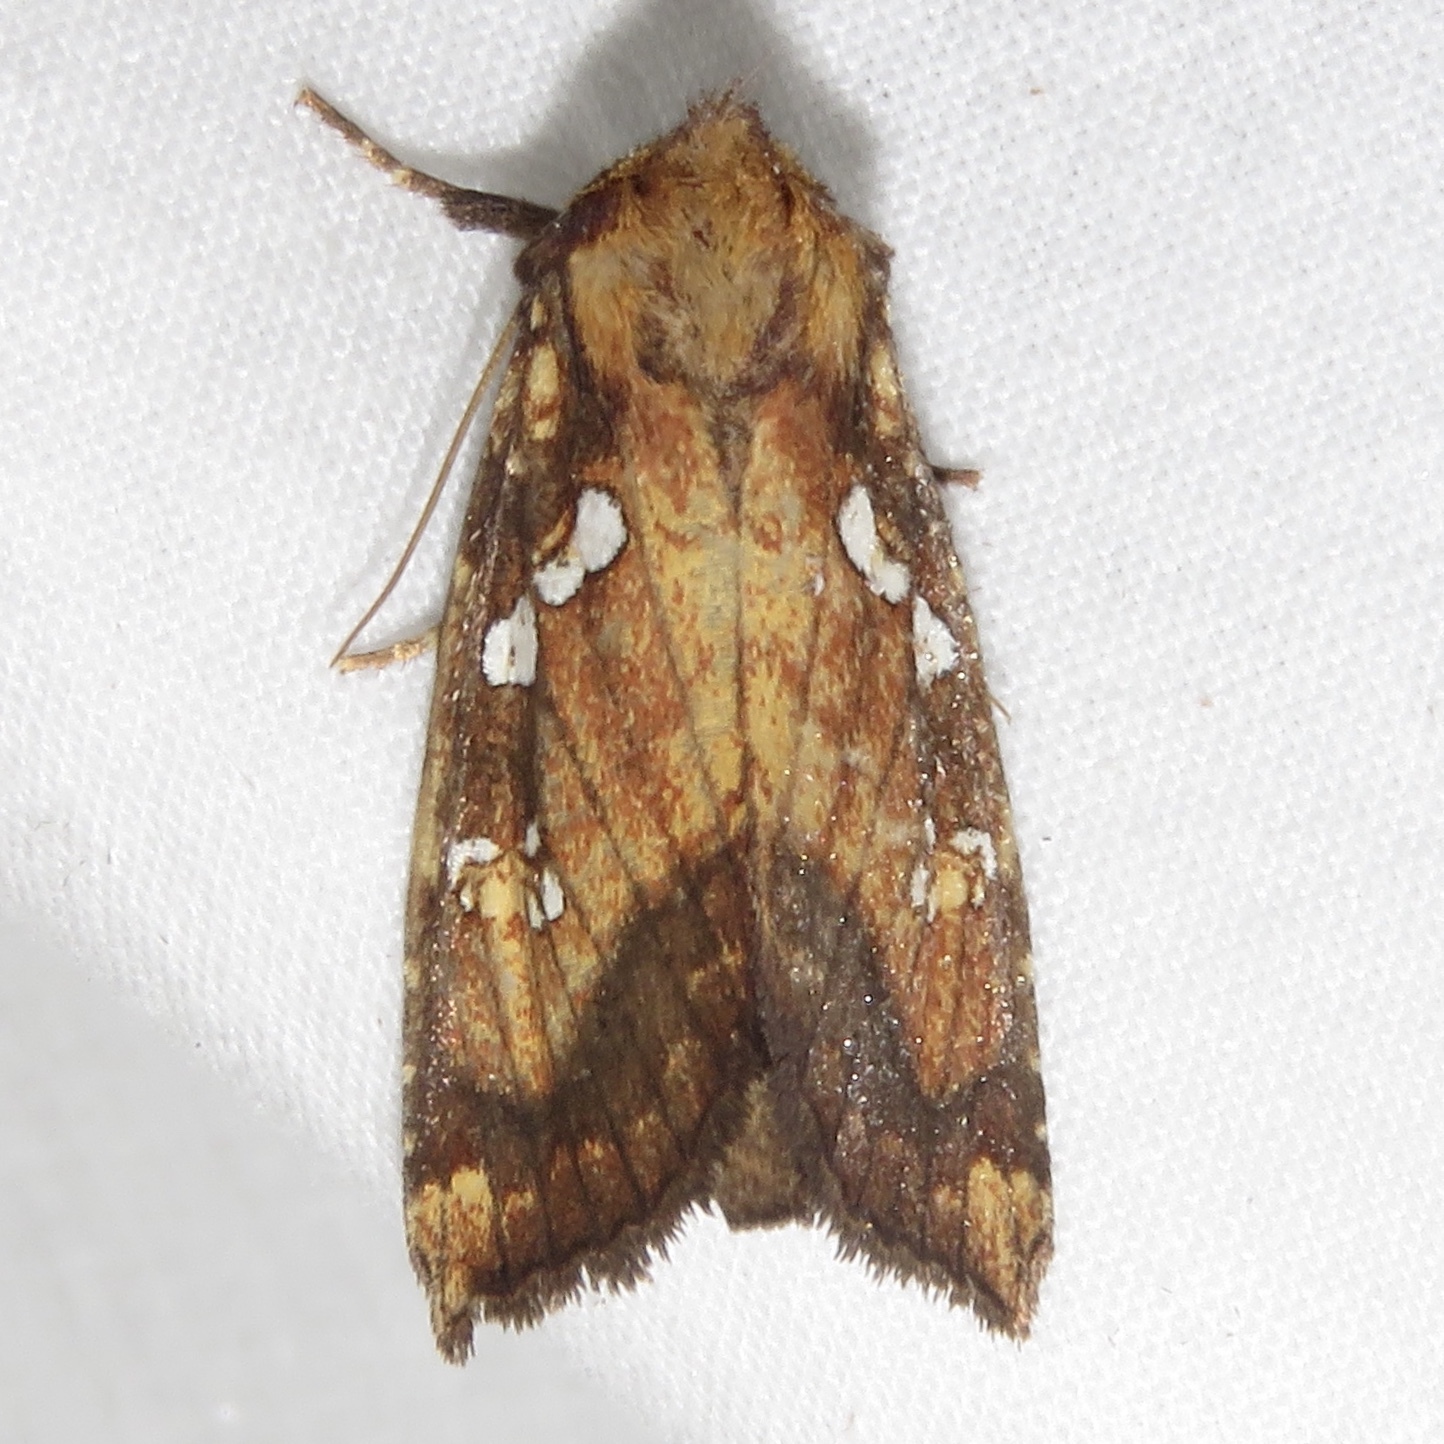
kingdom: Animalia
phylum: Arthropoda
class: Insecta
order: Lepidoptera
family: Noctuidae
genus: Papaipema
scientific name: Papaipema arctivorens
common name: Northern burdock borer moth
